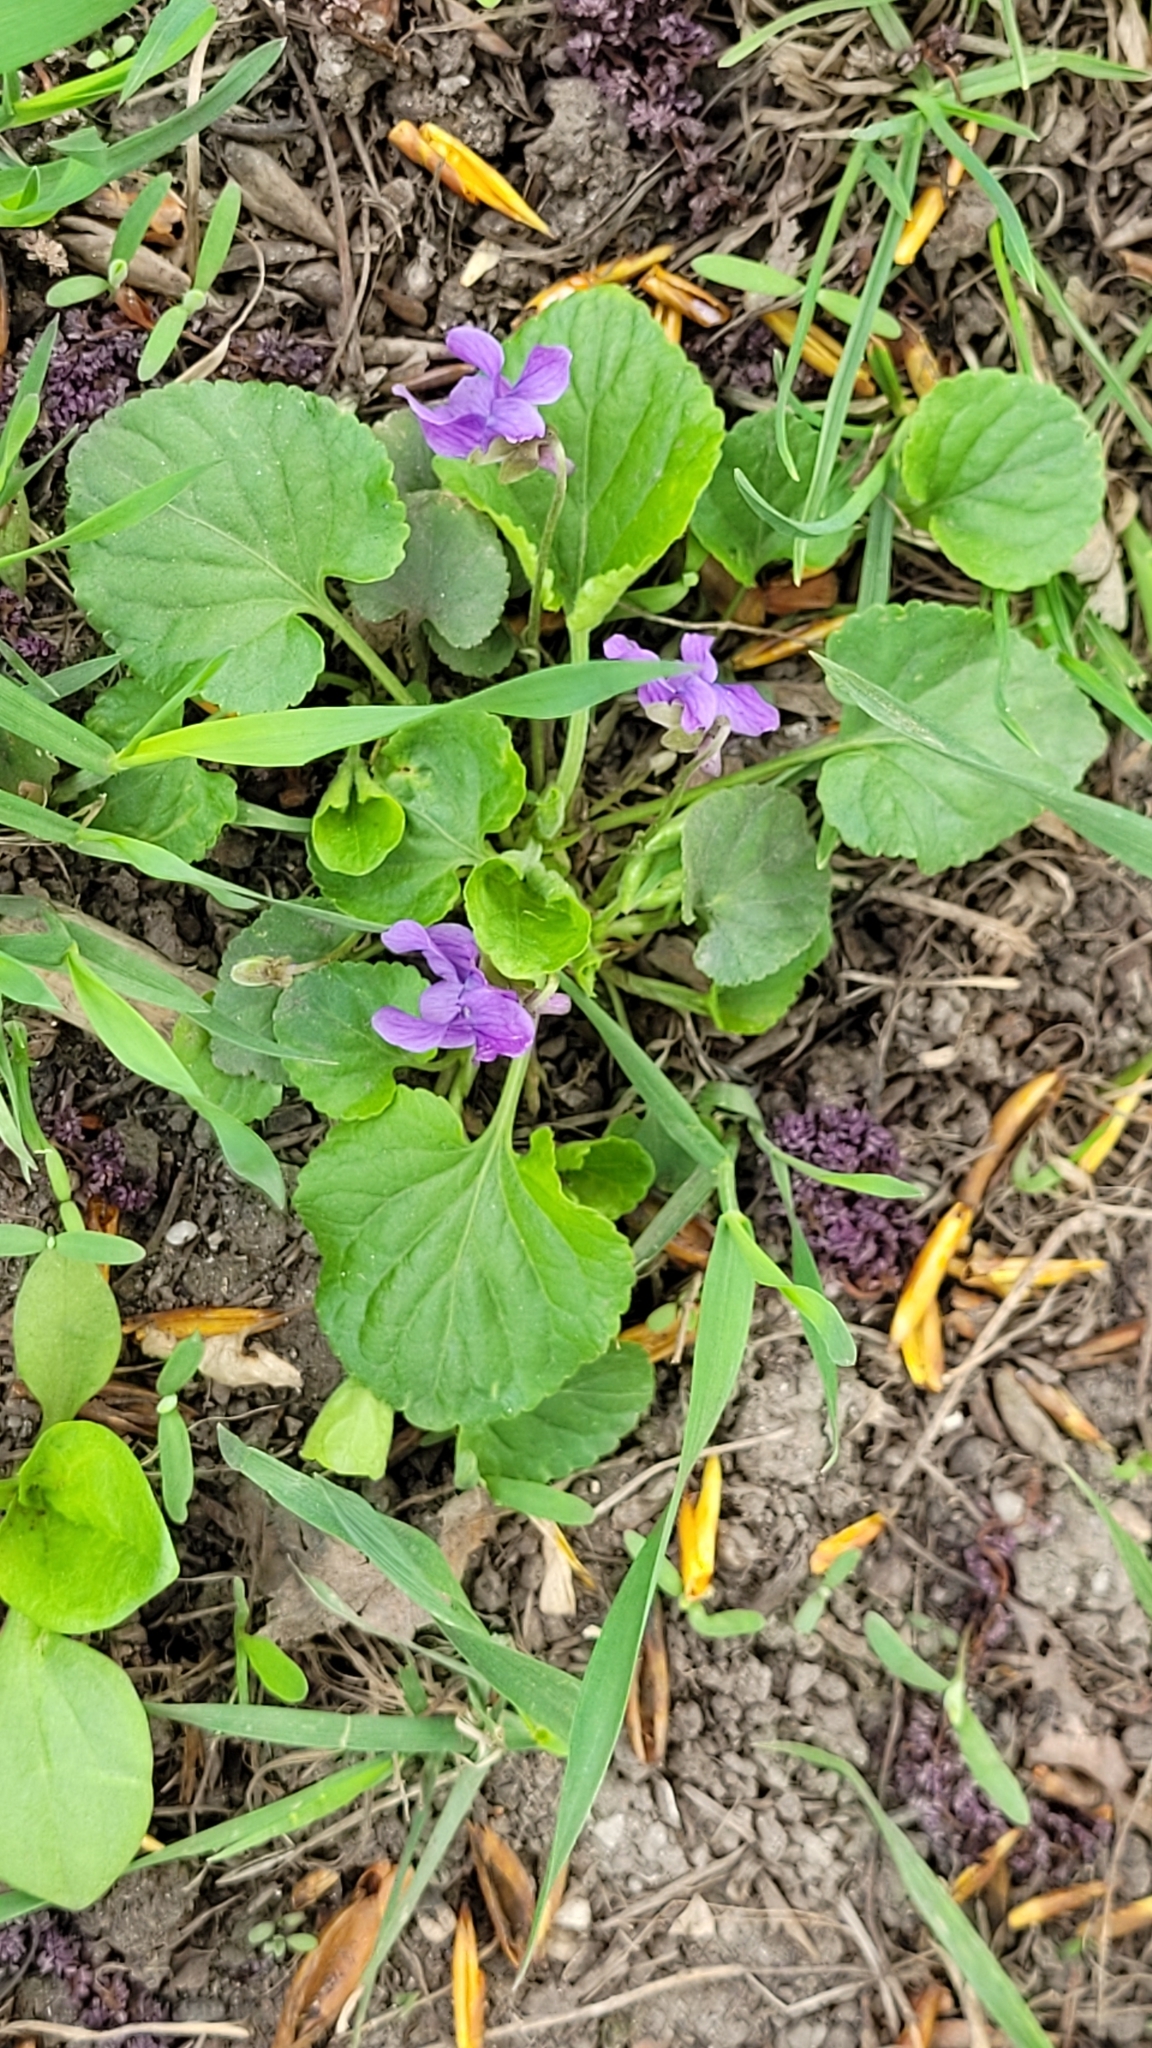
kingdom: Plantae
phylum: Tracheophyta
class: Magnoliopsida
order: Malpighiales
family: Violaceae
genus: Viola
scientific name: Viola odorata
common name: Sweet violet
